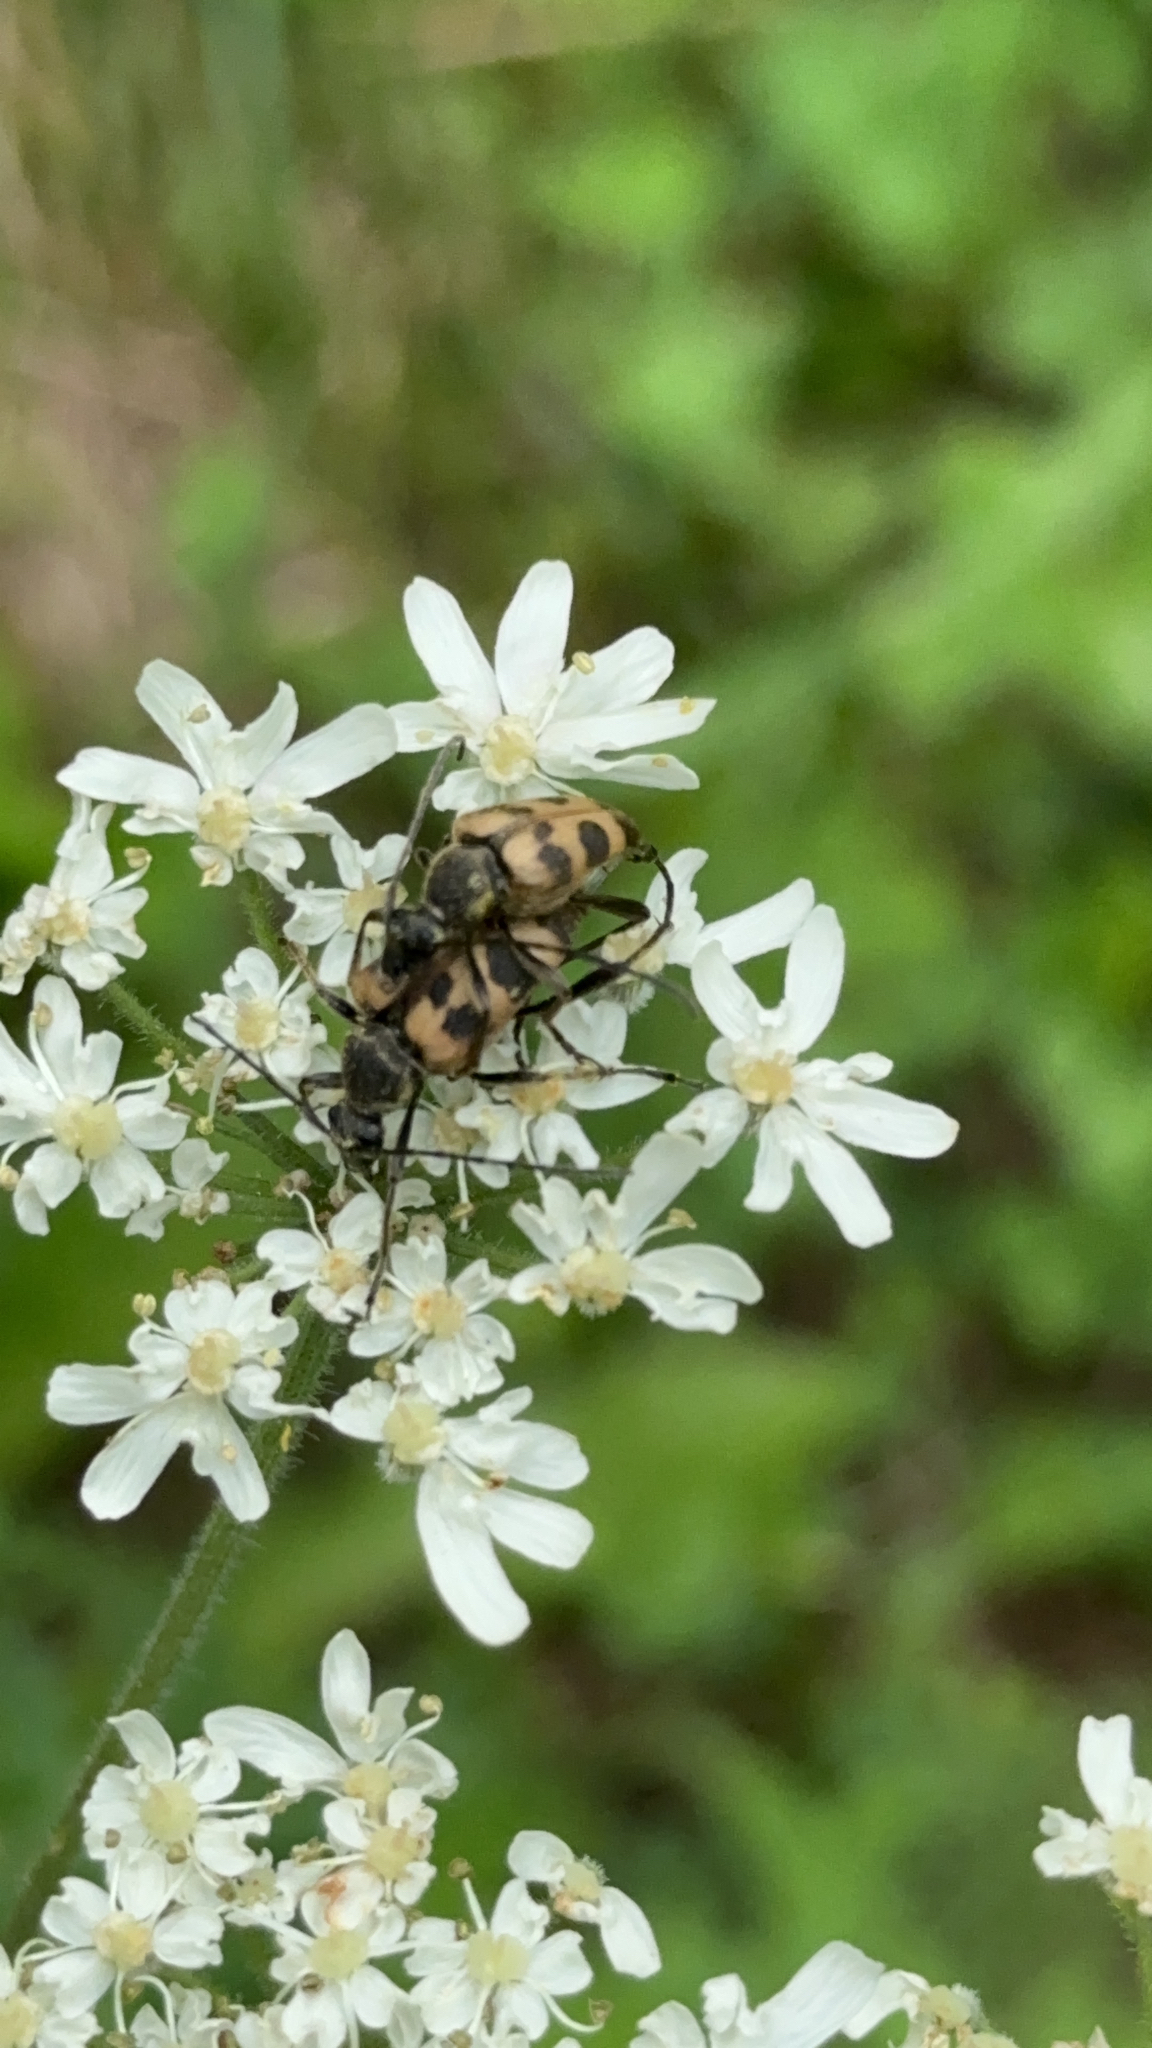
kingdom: Animalia
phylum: Arthropoda
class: Insecta
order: Coleoptera
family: Cerambycidae
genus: Pachytodes
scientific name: Pachytodes cerambyciformis
